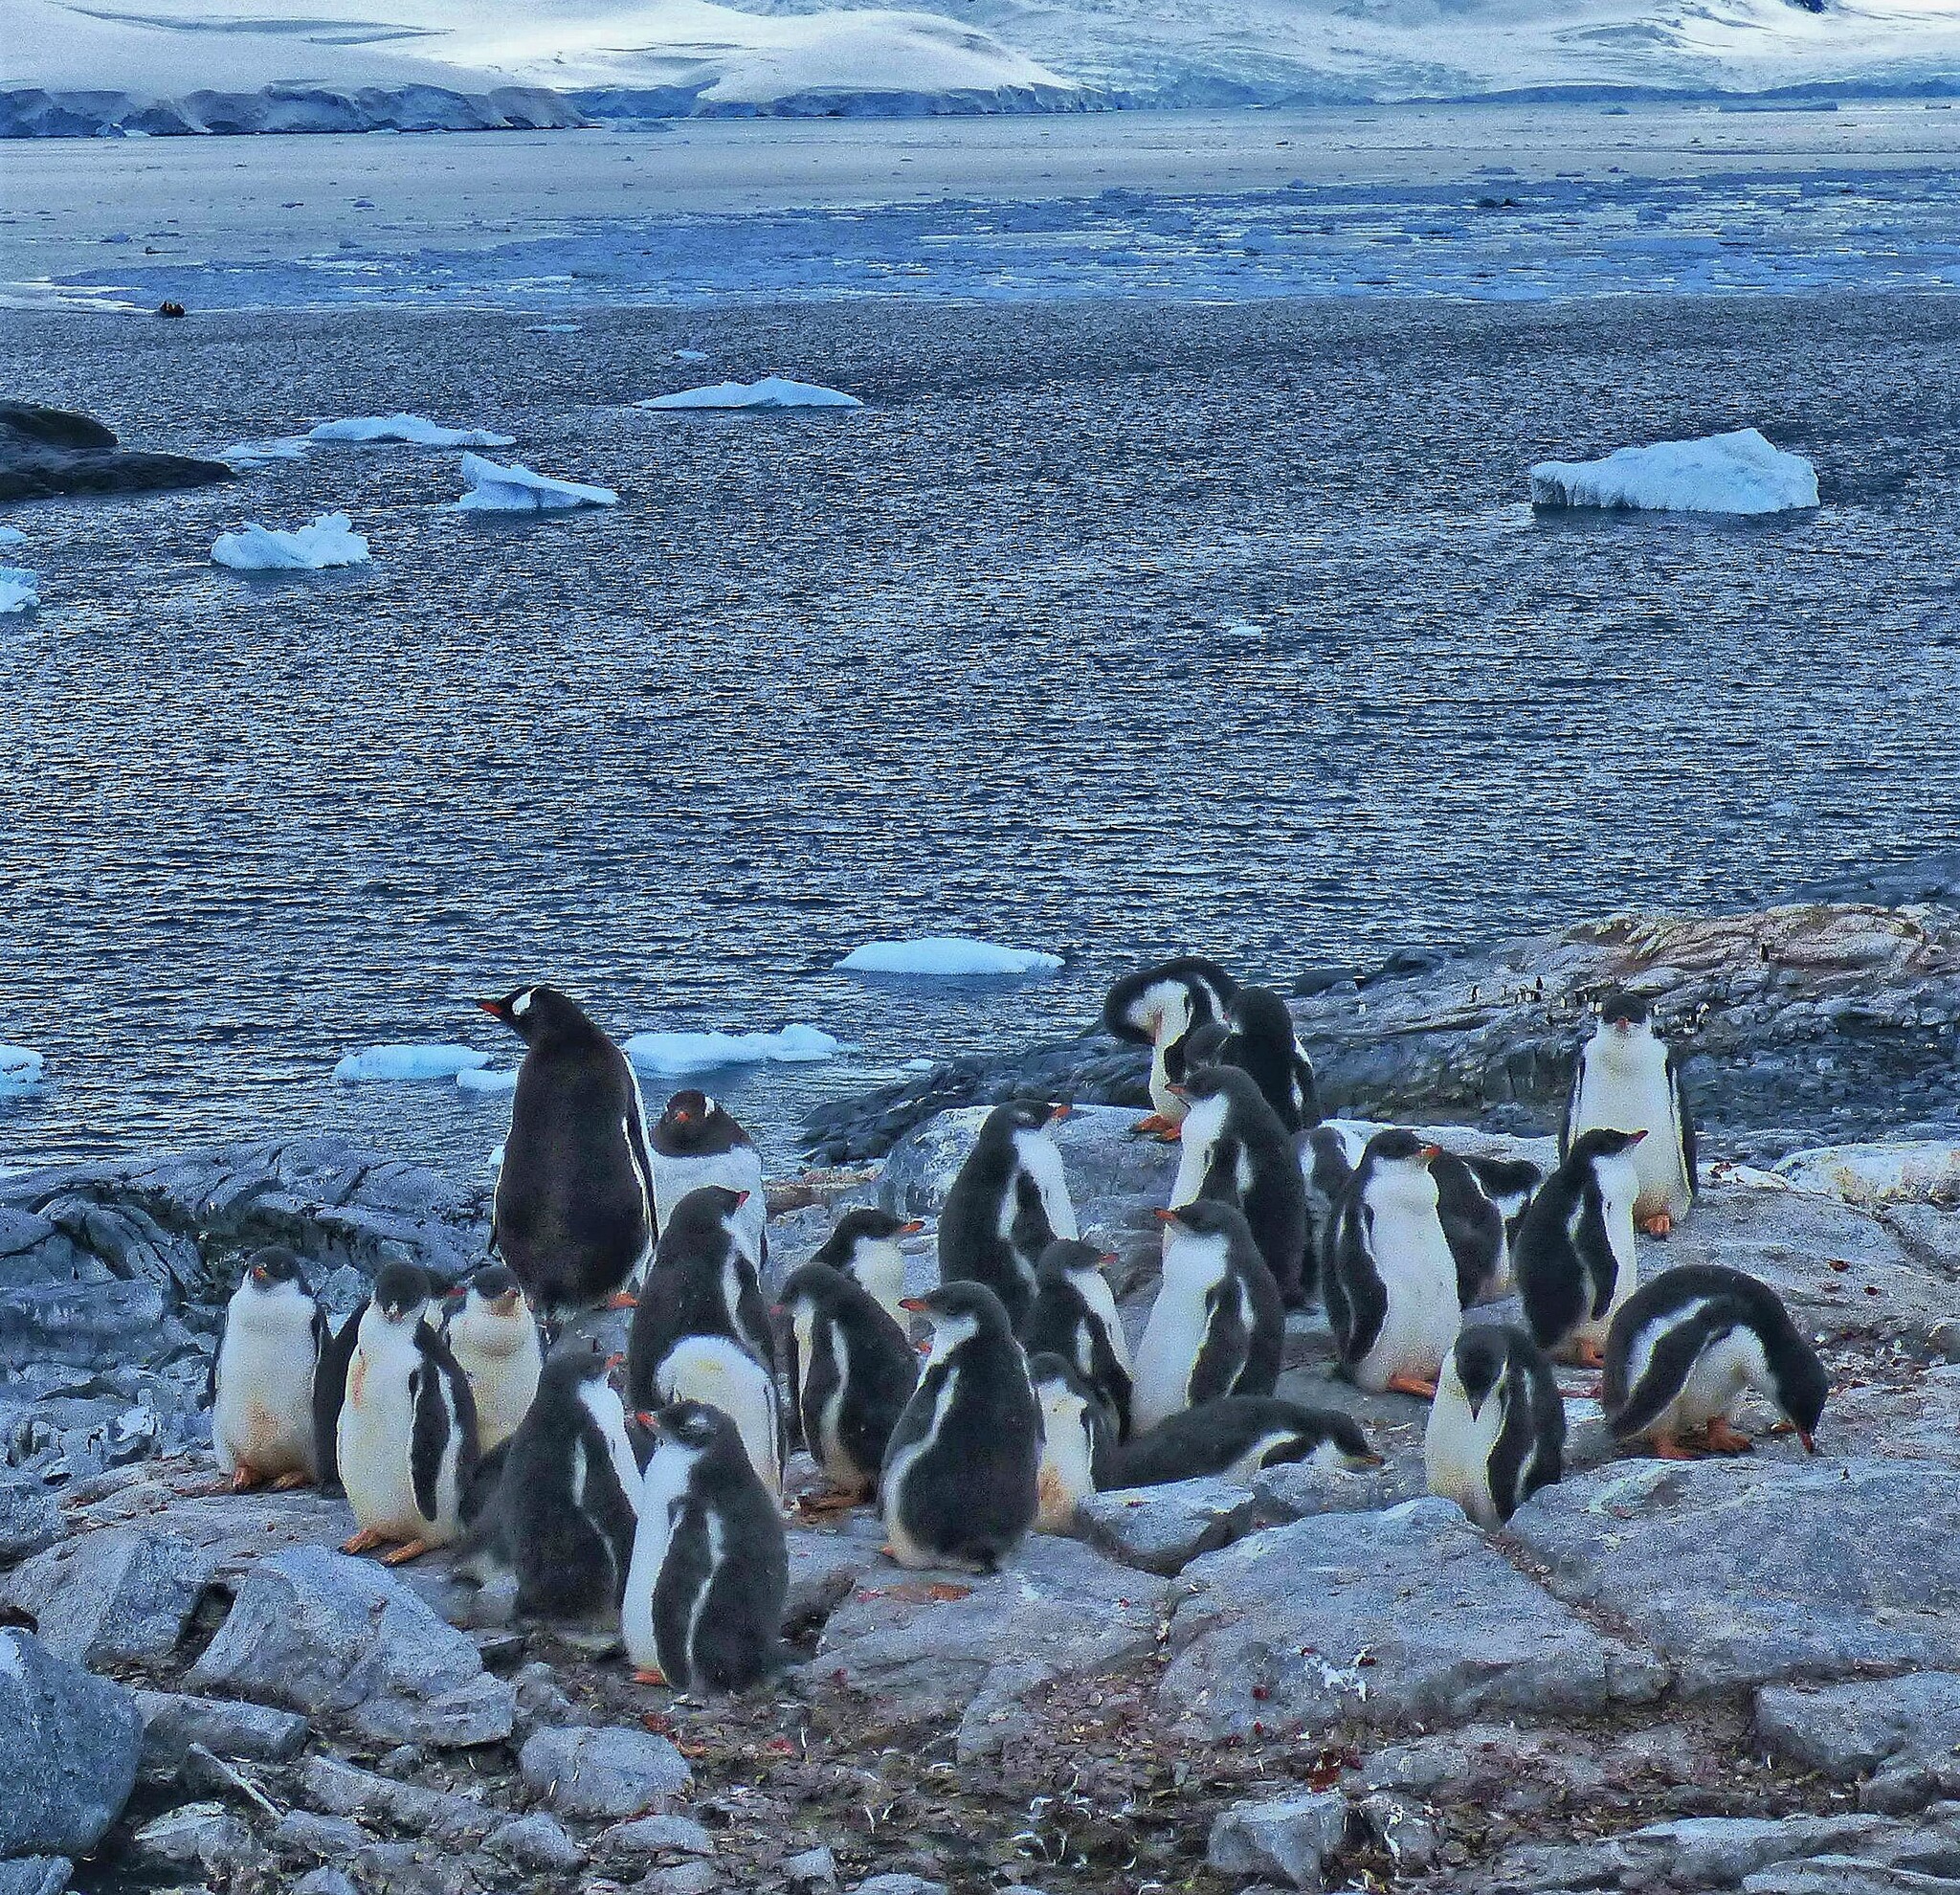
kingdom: Animalia
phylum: Chordata
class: Aves
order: Sphenisciformes
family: Spheniscidae
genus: Pygoscelis
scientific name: Pygoscelis papua
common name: Gentoo penguin
